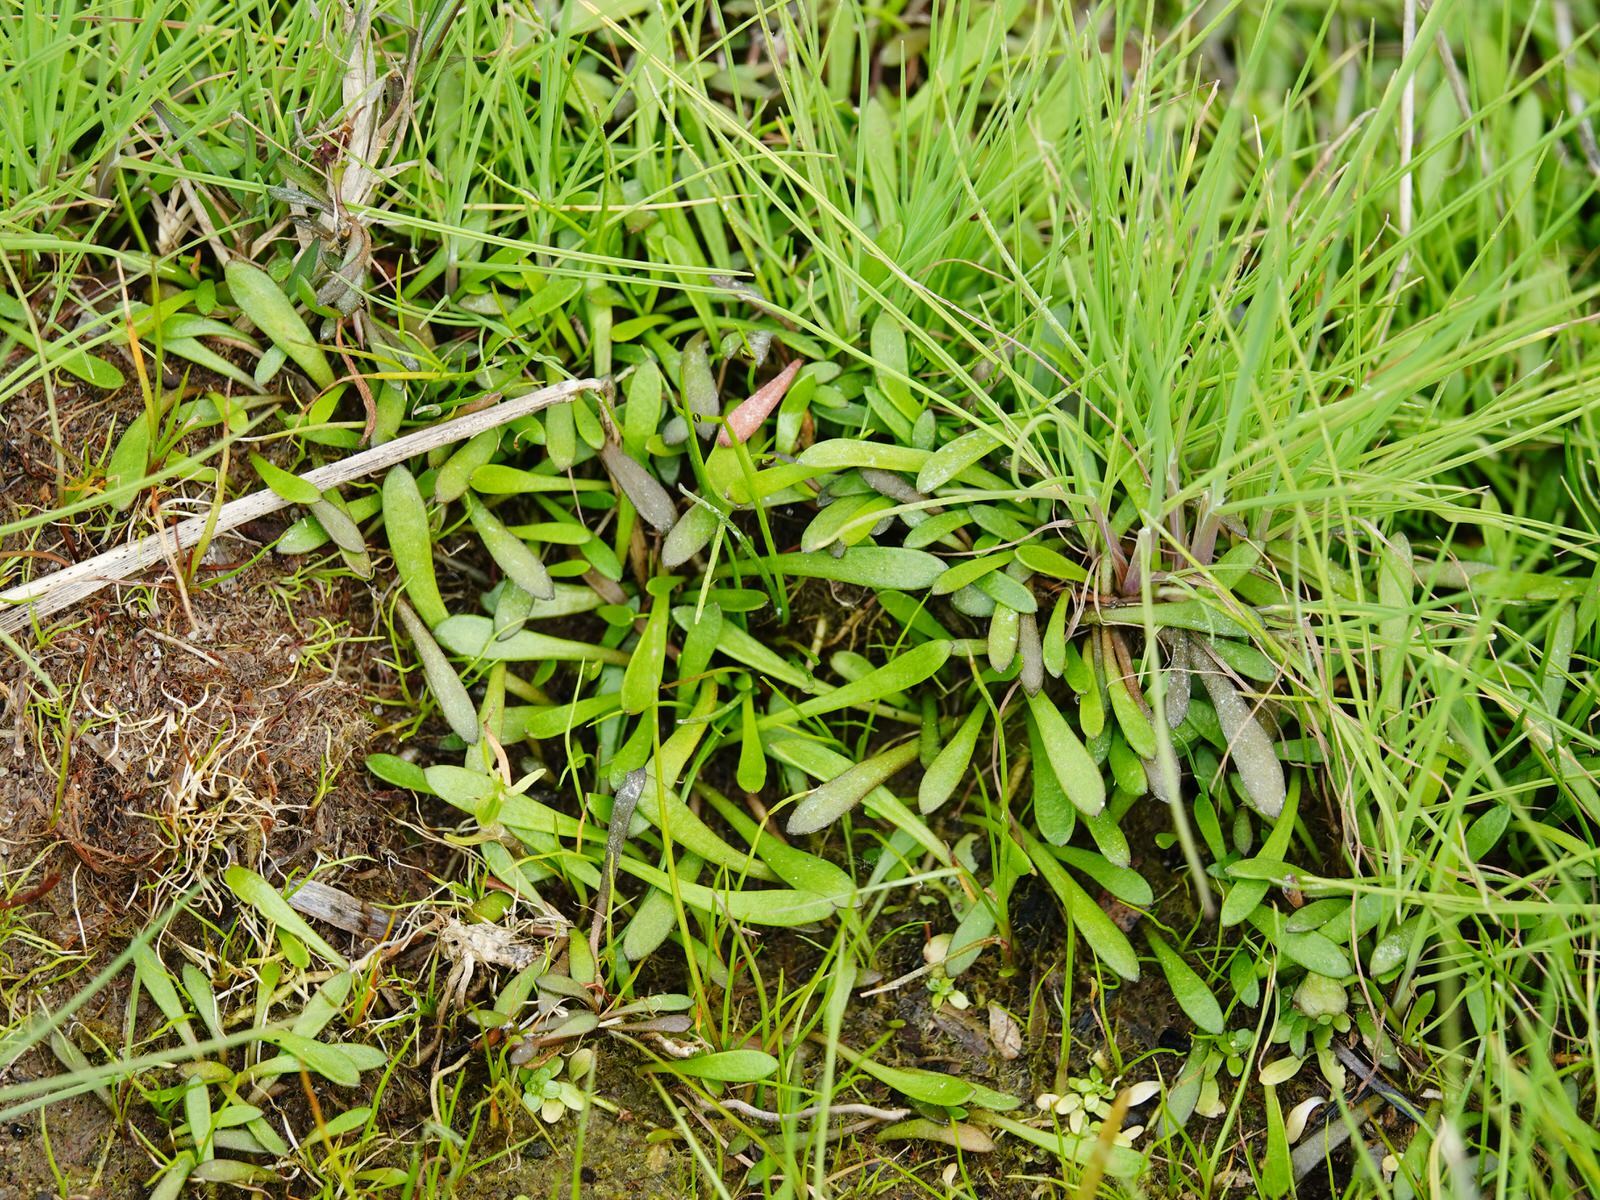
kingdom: Plantae
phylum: Tracheophyta
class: Magnoliopsida
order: Asterales
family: Goodeniaceae
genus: Goodenia
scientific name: Goodenia radicans
